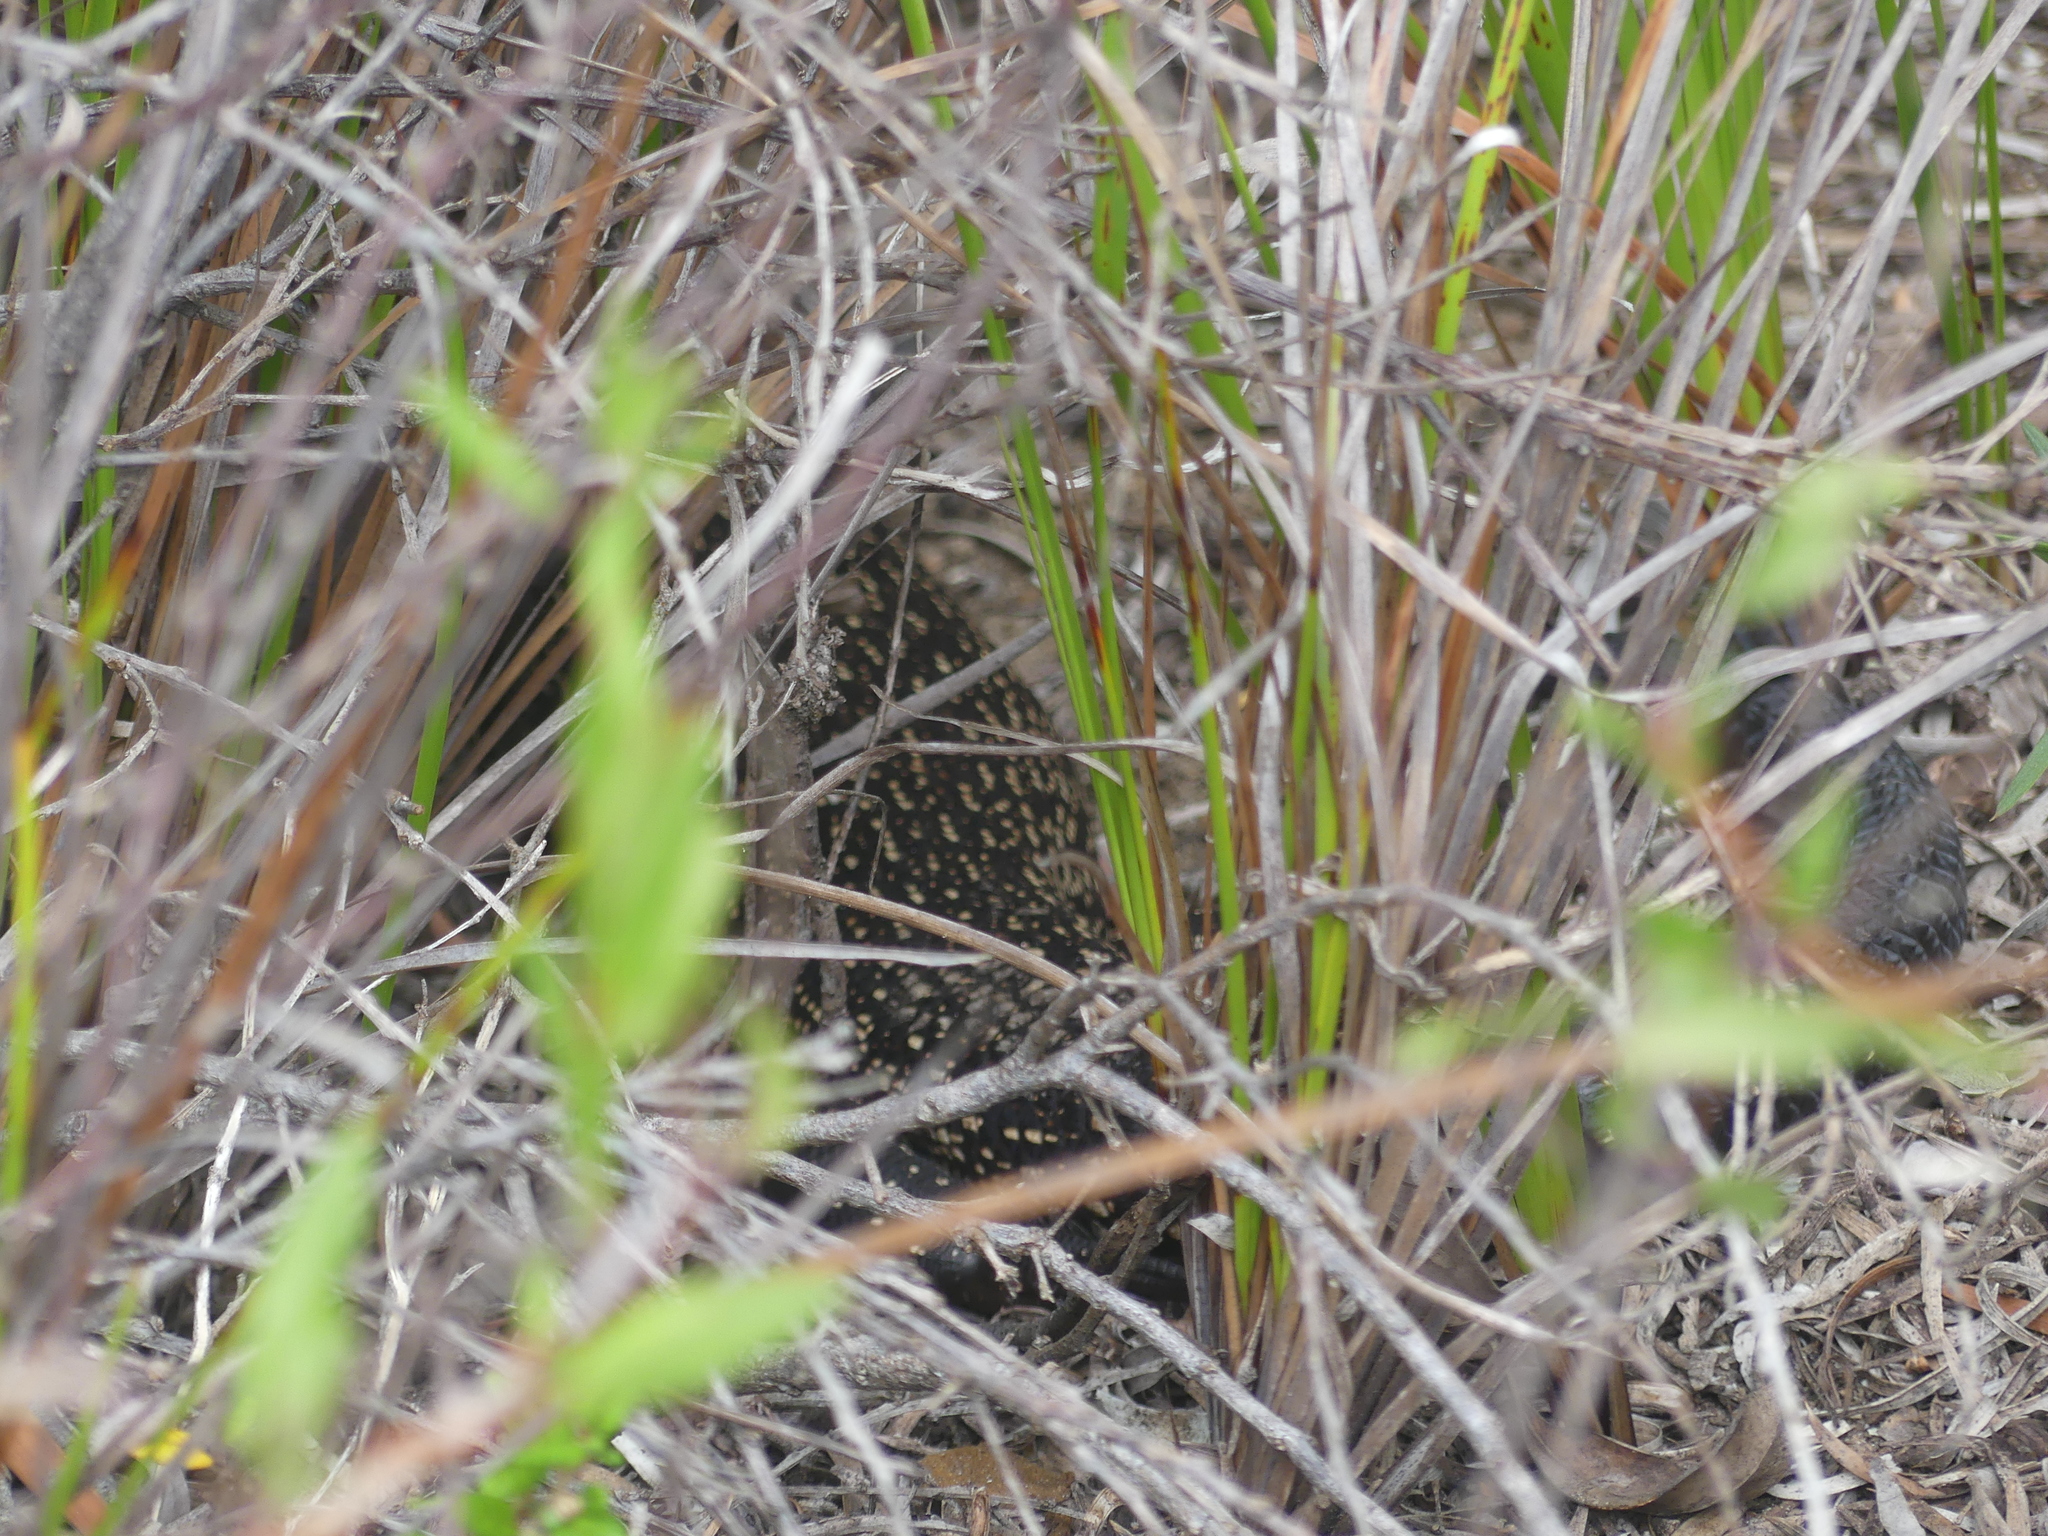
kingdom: Animalia
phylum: Chordata
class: Squamata
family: Scincidae
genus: Egernia
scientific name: Egernia kingii
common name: King's skink
